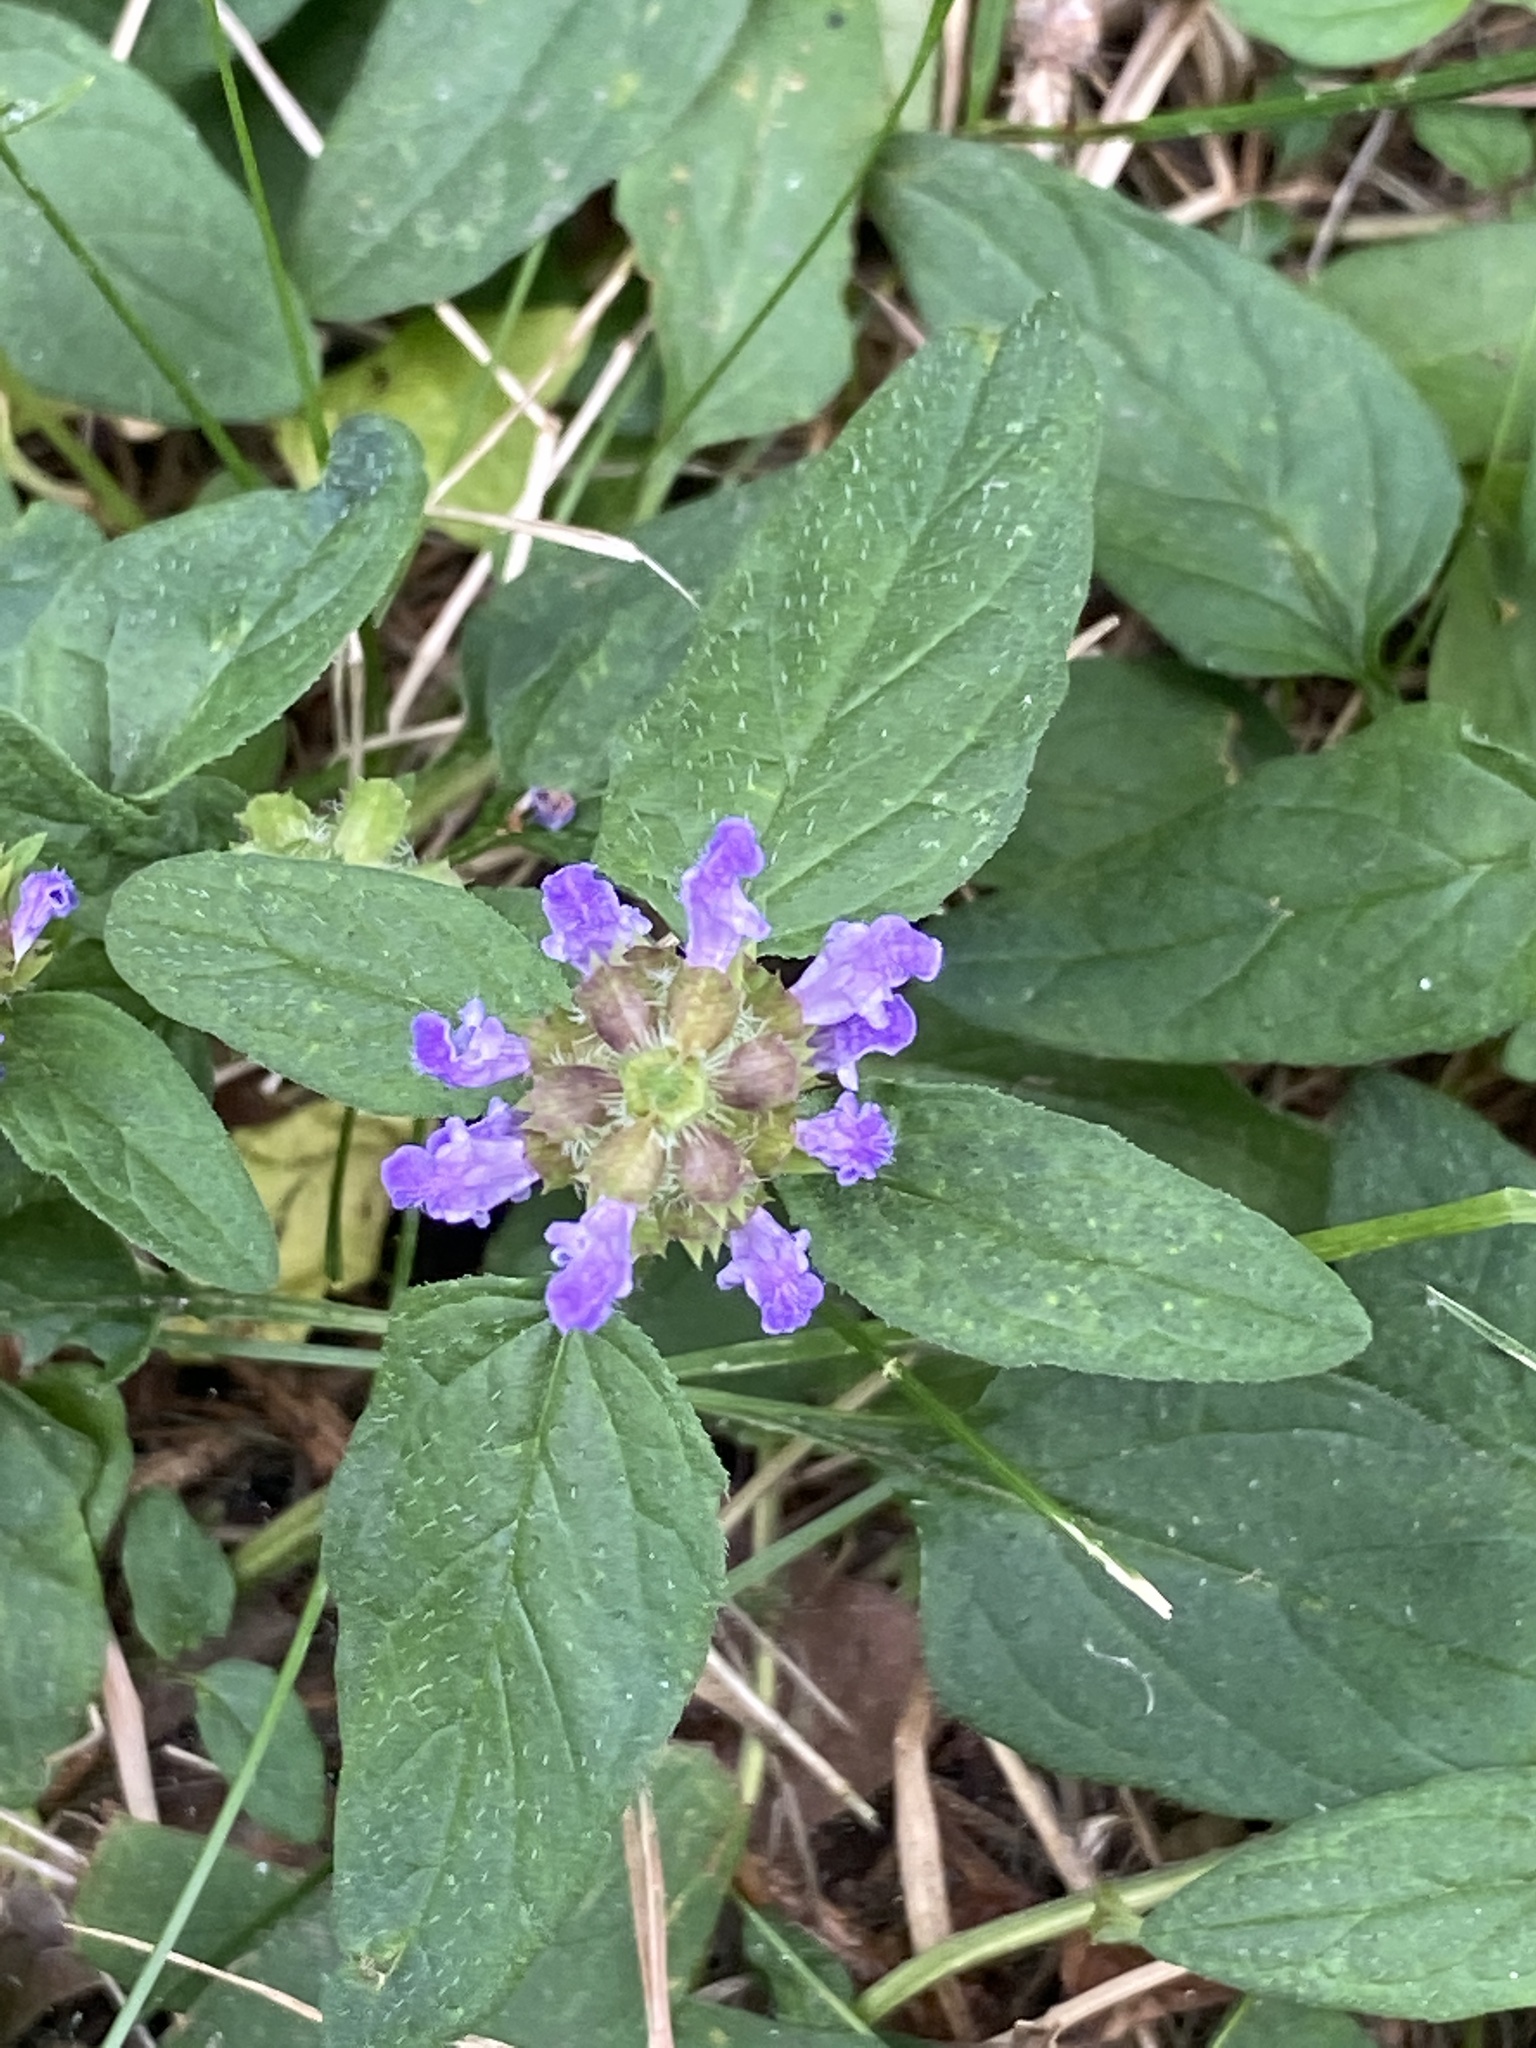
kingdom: Plantae
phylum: Tracheophyta
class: Magnoliopsida
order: Lamiales
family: Lamiaceae
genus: Prunella
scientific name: Prunella vulgaris
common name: Heal-all
